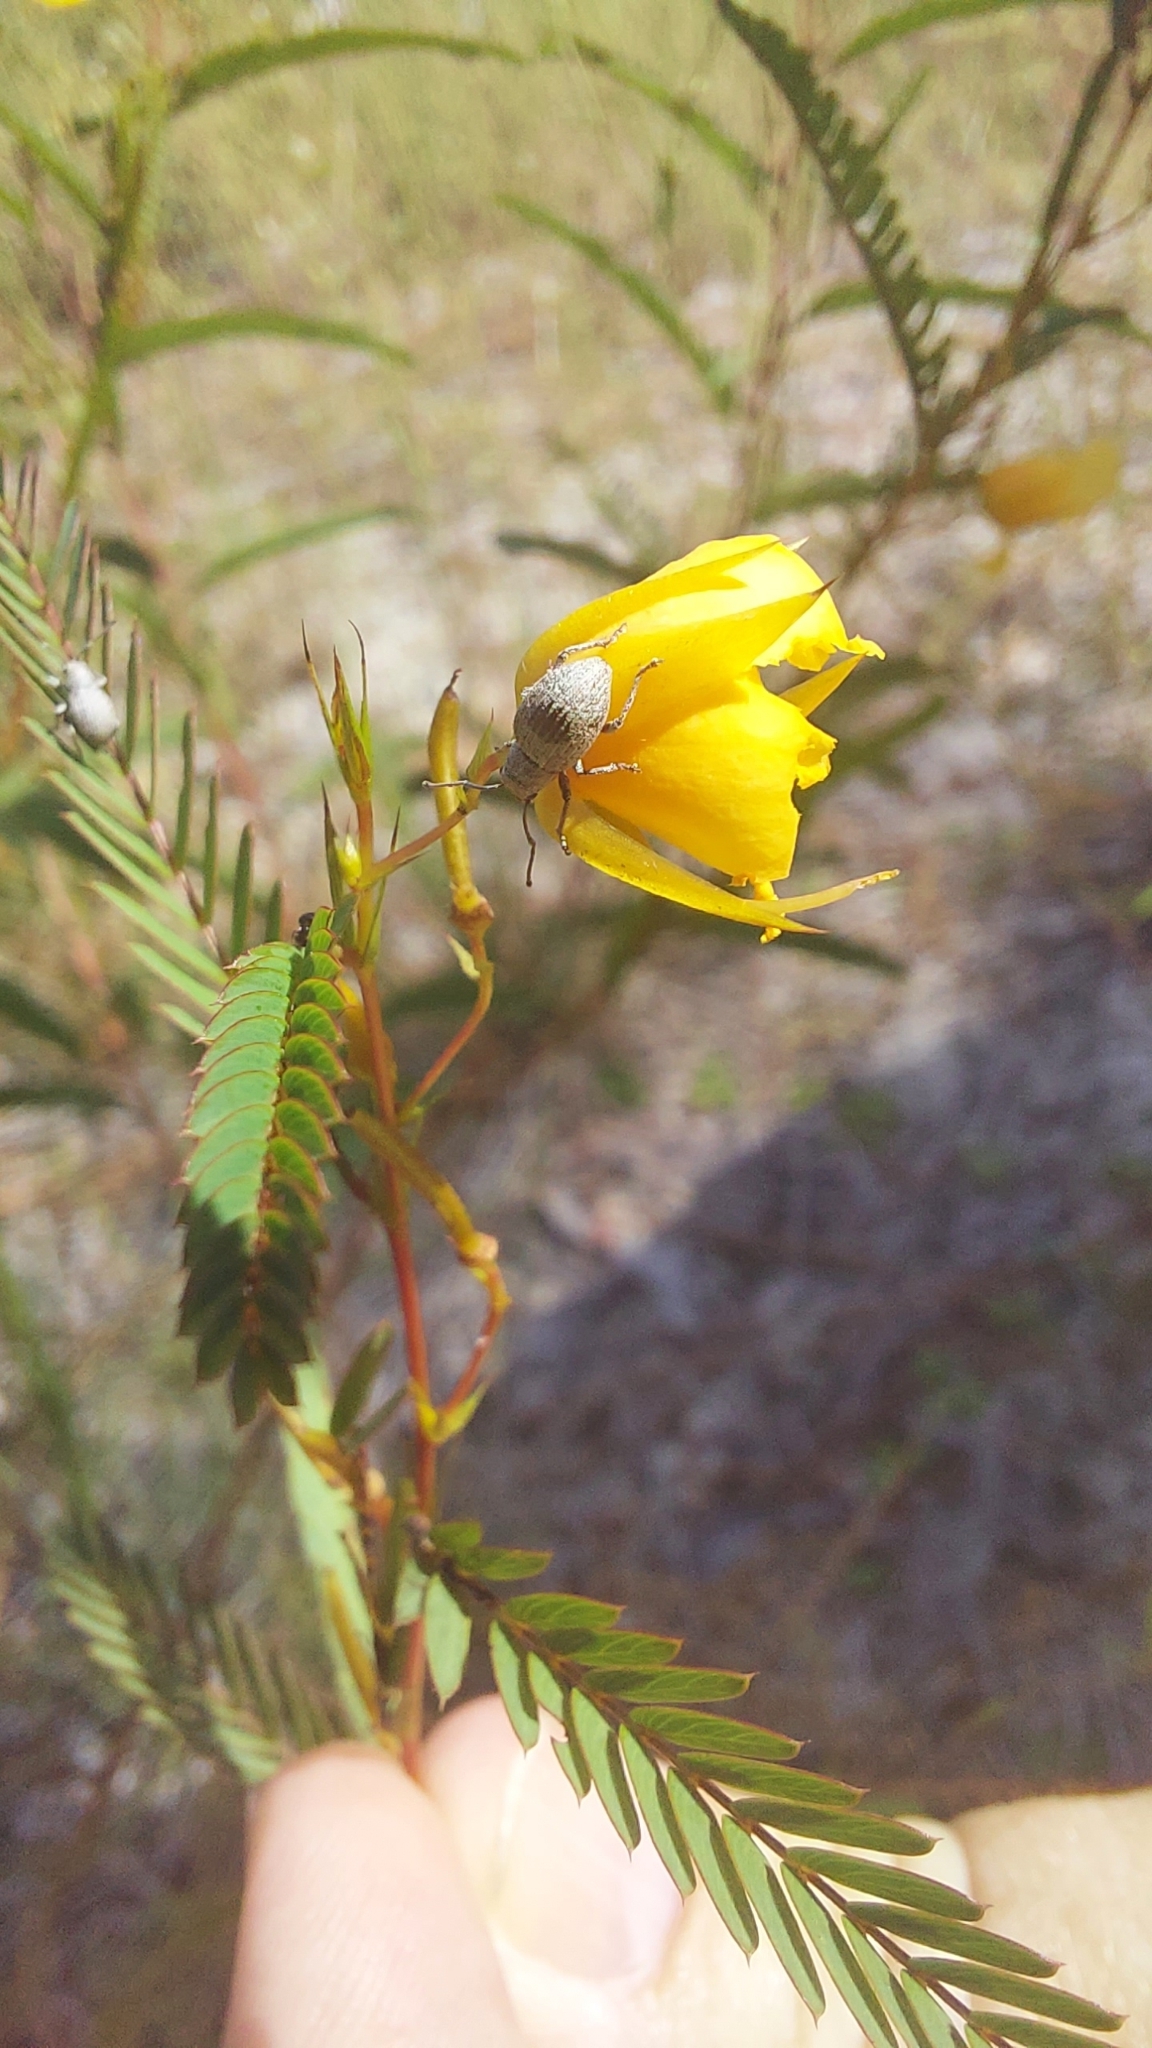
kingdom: Animalia
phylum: Arthropoda
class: Insecta
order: Coleoptera
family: Curculionidae
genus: Neoptochus
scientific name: Neoptochus adspersus
